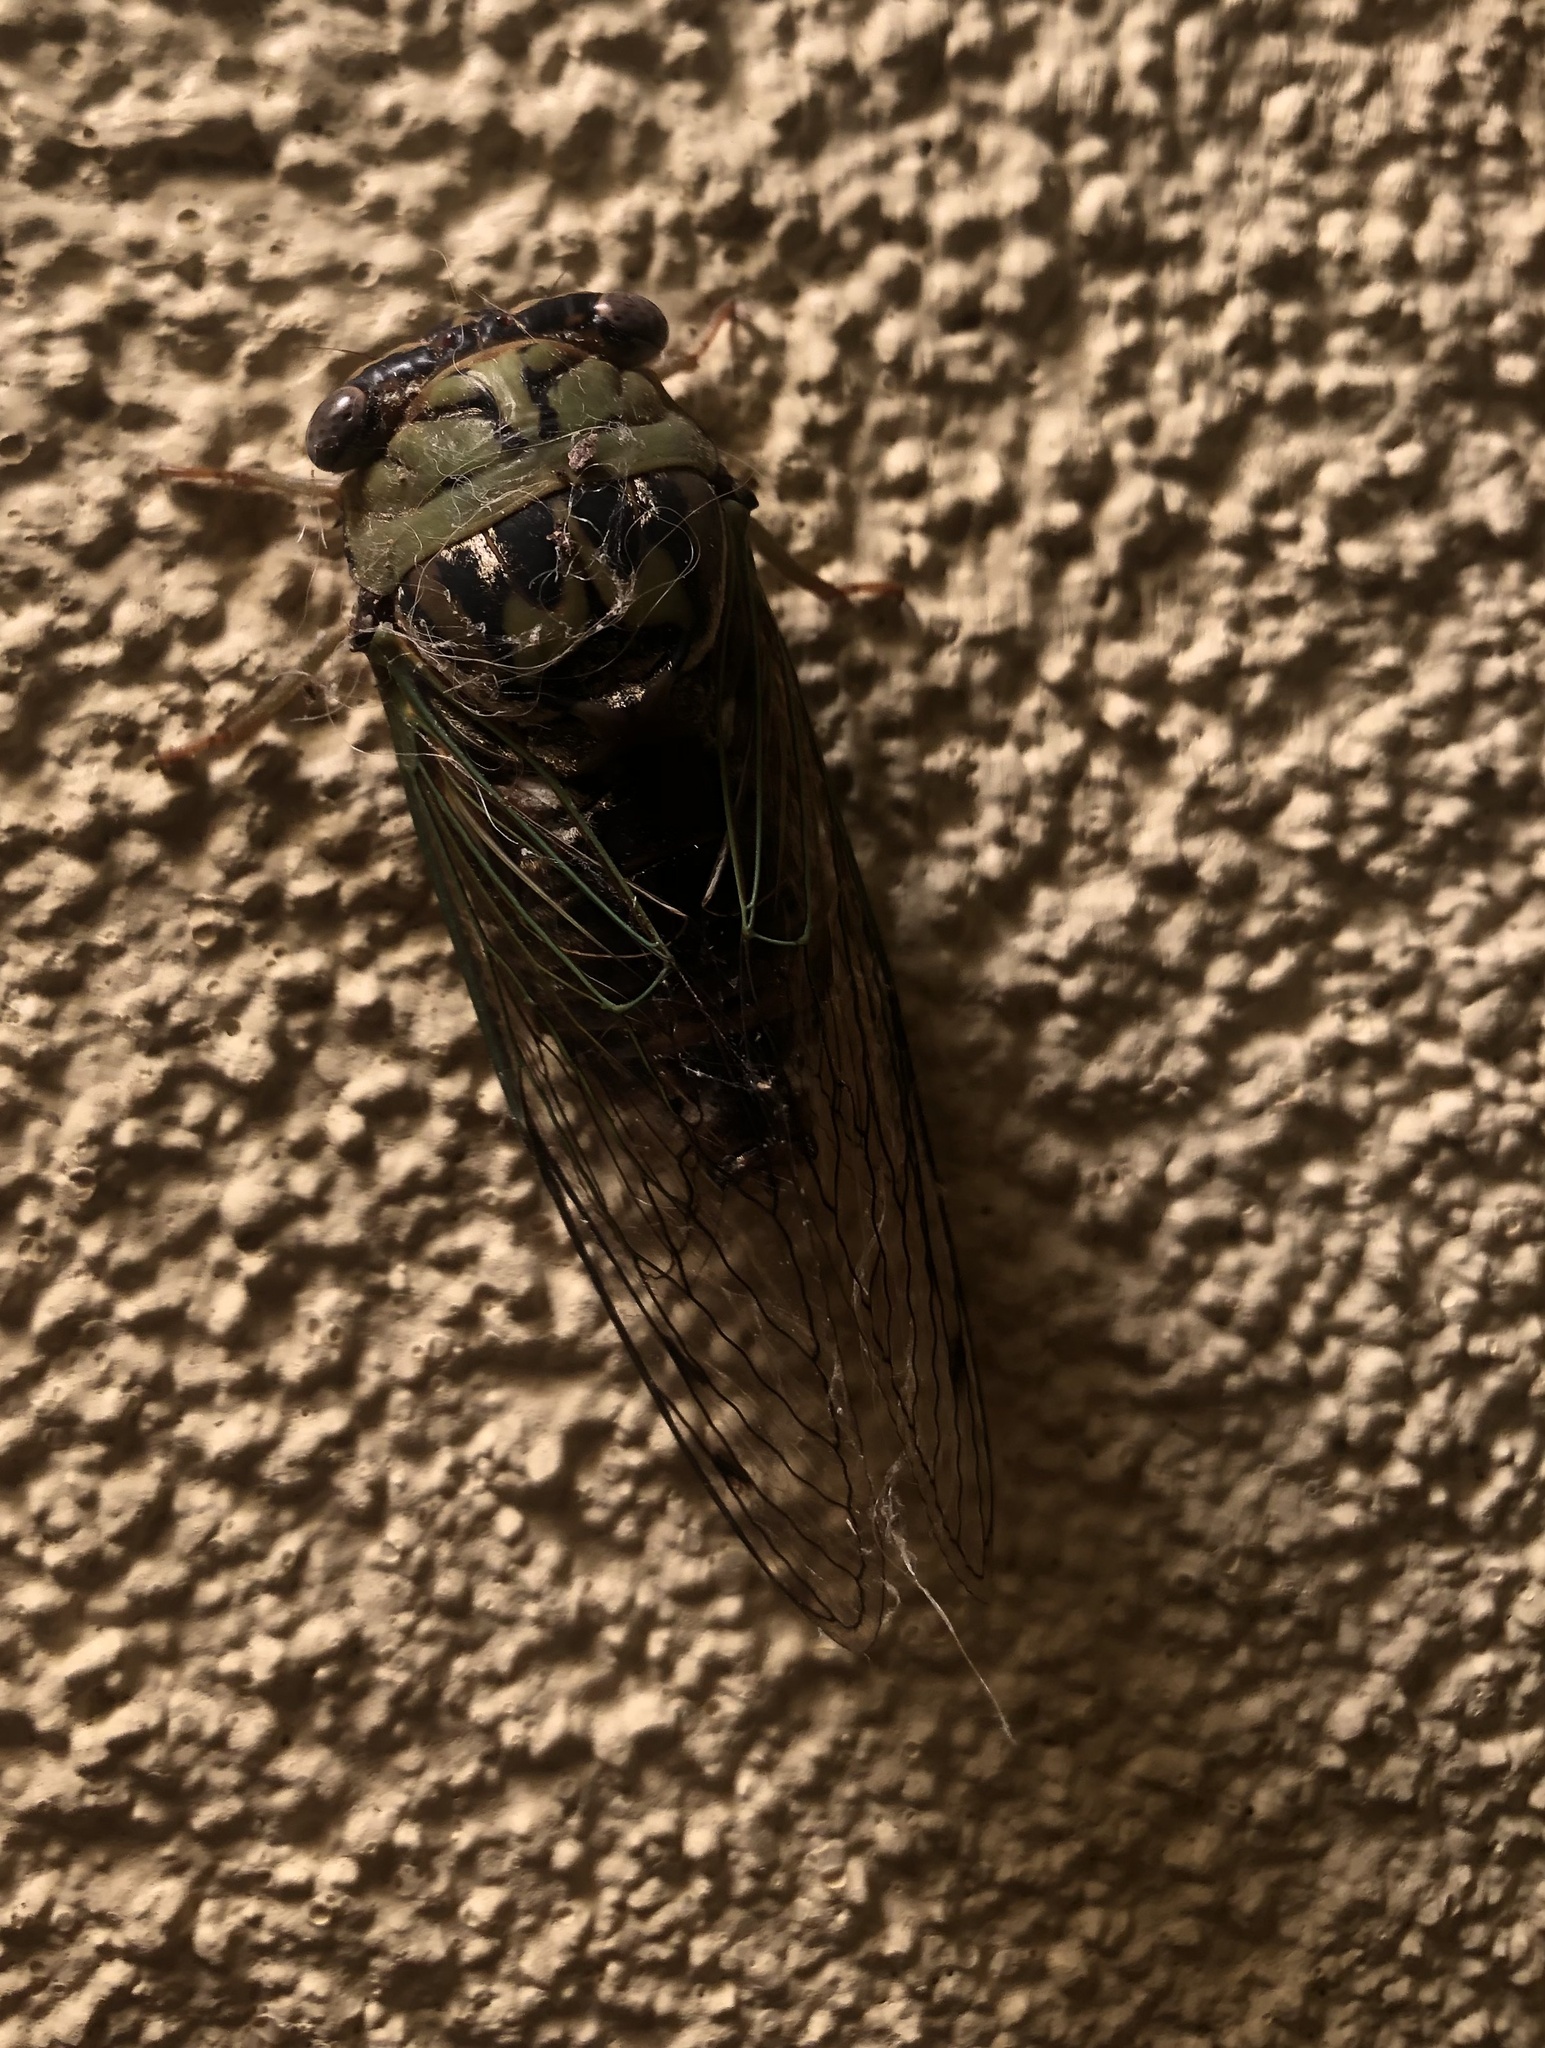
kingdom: Animalia
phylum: Arthropoda
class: Insecta
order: Hemiptera
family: Cicadidae
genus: Megatibicen
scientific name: Megatibicen resh
